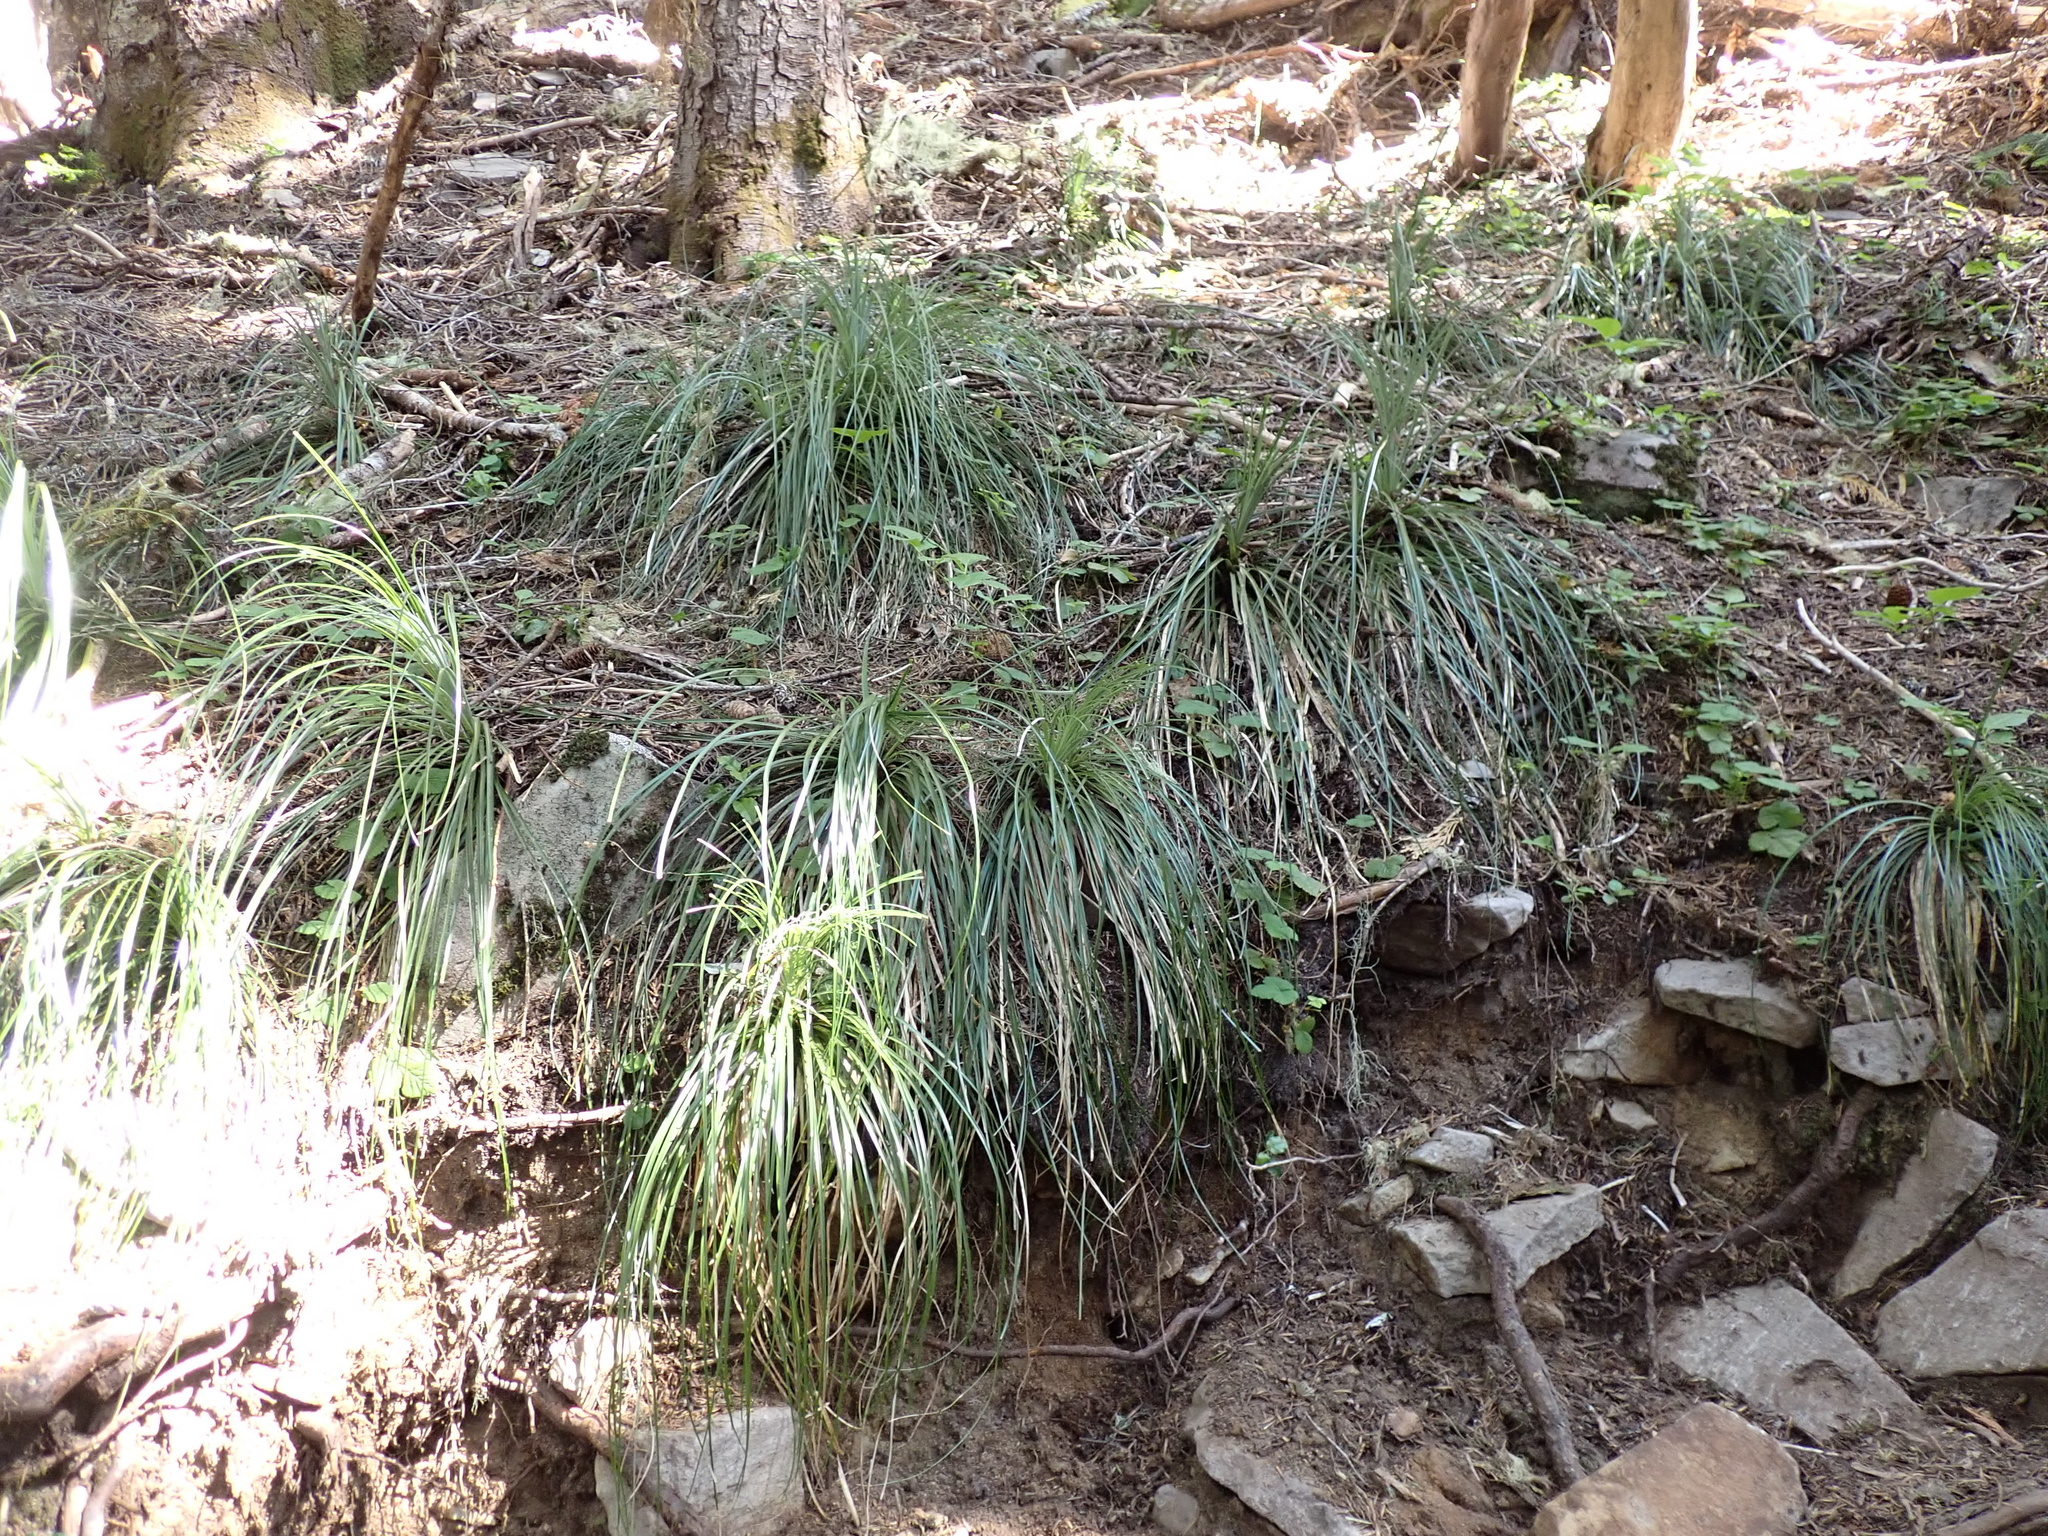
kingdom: Plantae
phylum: Tracheophyta
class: Liliopsida
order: Liliales
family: Melanthiaceae
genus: Xerophyllum
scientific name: Xerophyllum tenax
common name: Bear-grass
